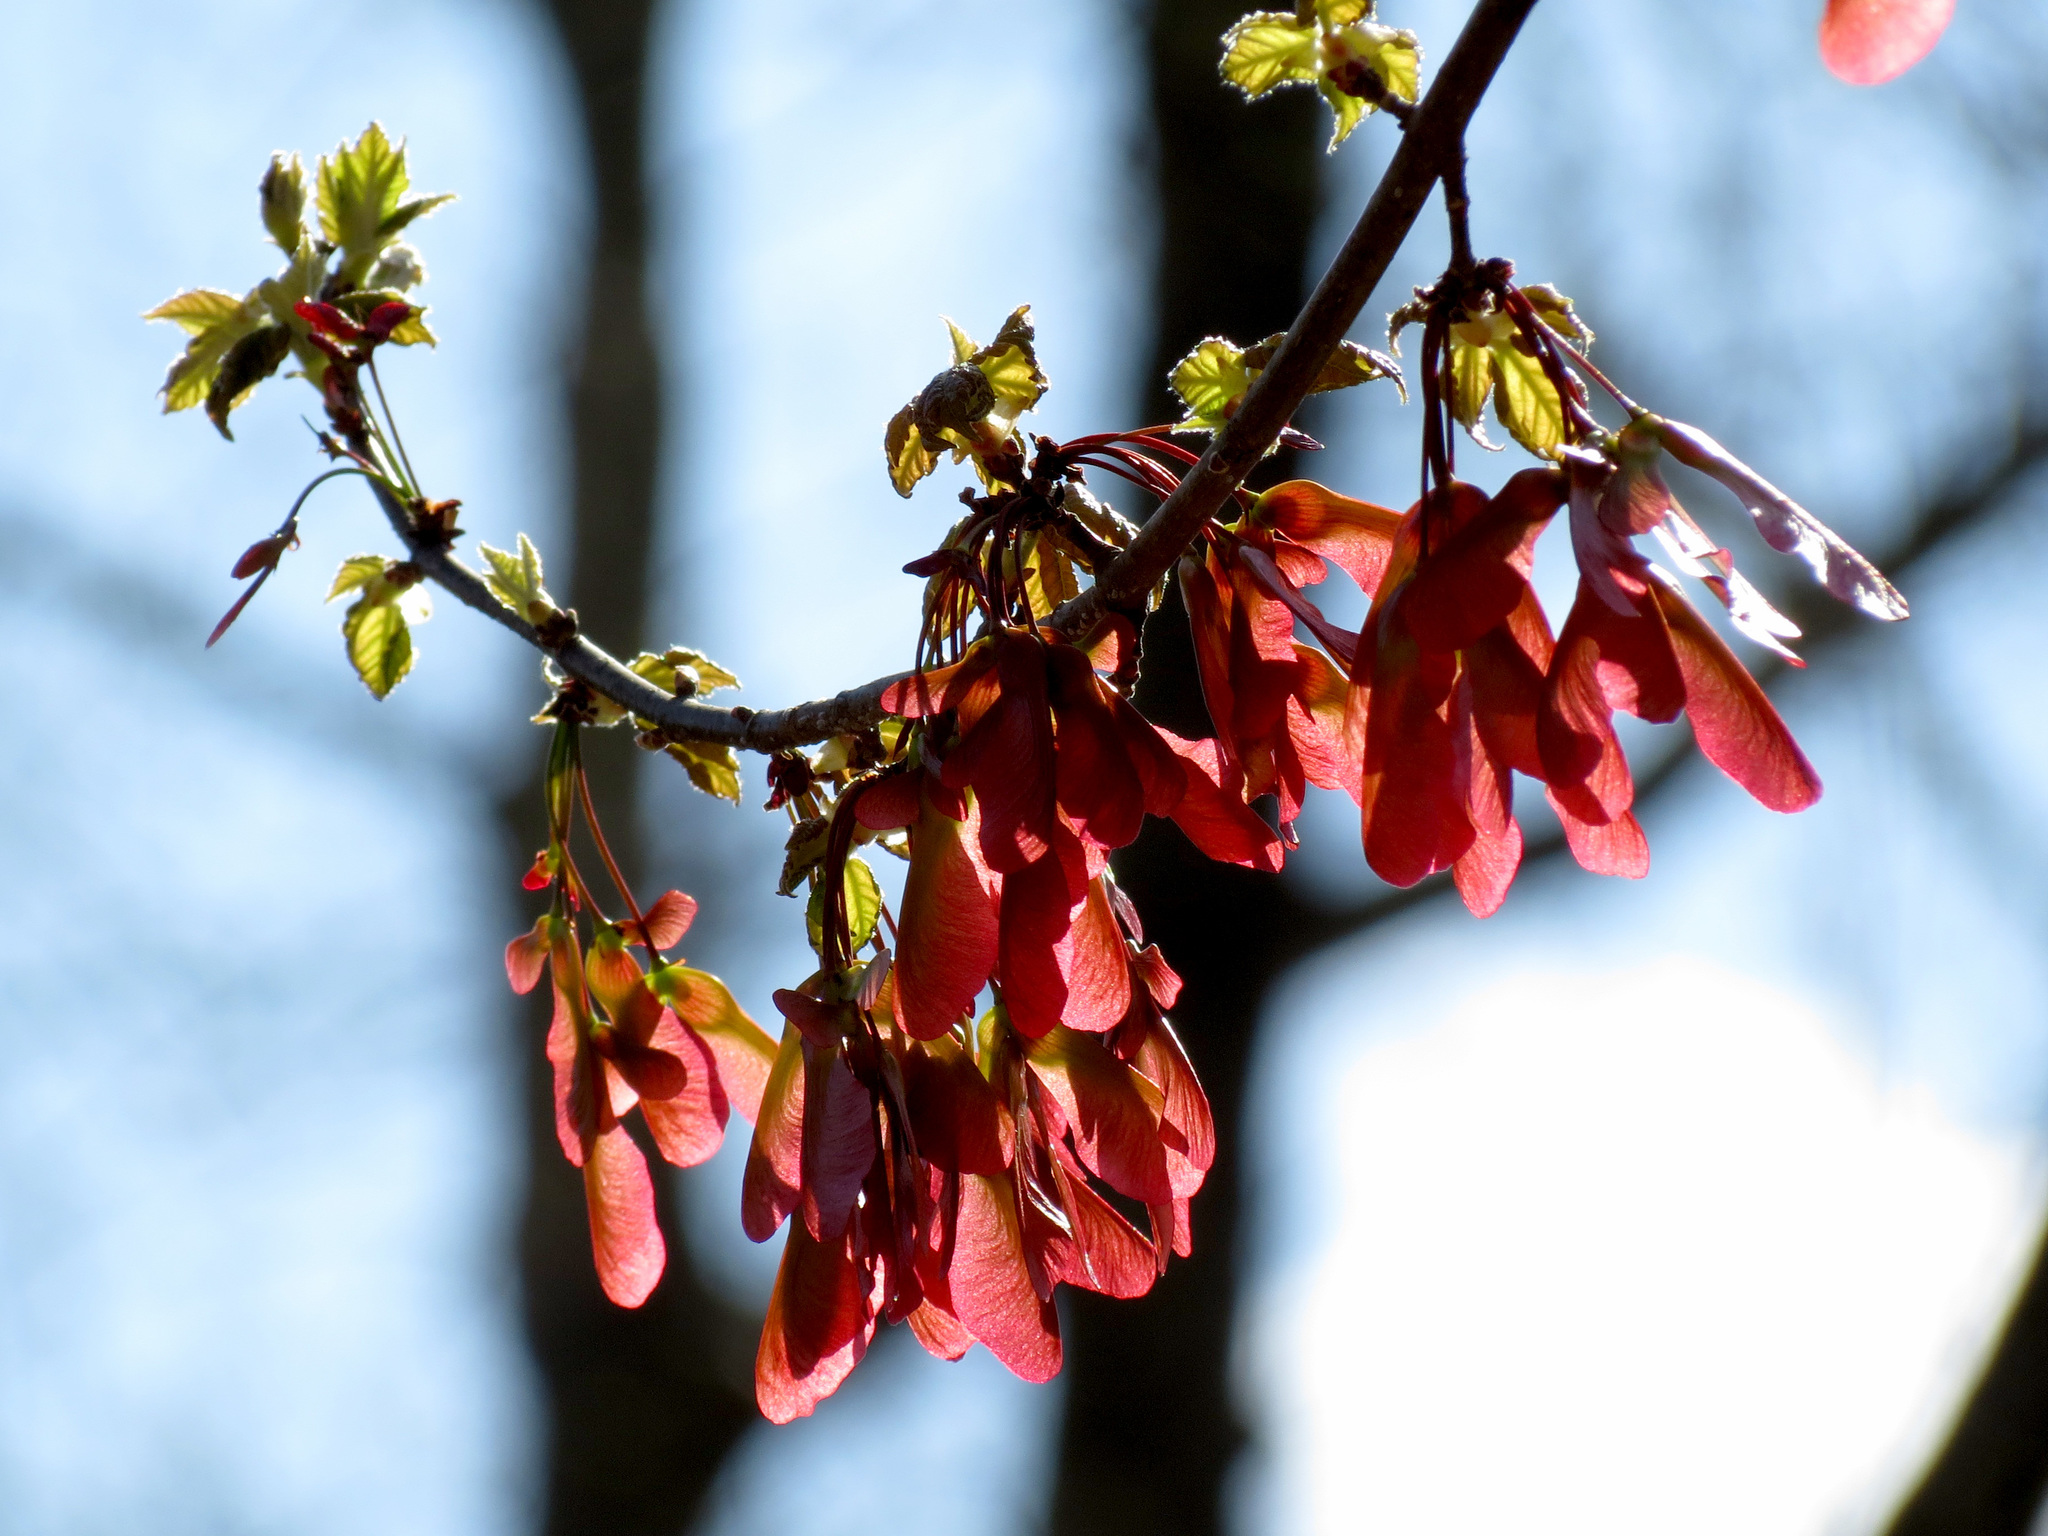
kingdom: Plantae
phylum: Tracheophyta
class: Magnoliopsida
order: Sapindales
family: Sapindaceae
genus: Acer
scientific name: Acer rubrum
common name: Red maple
